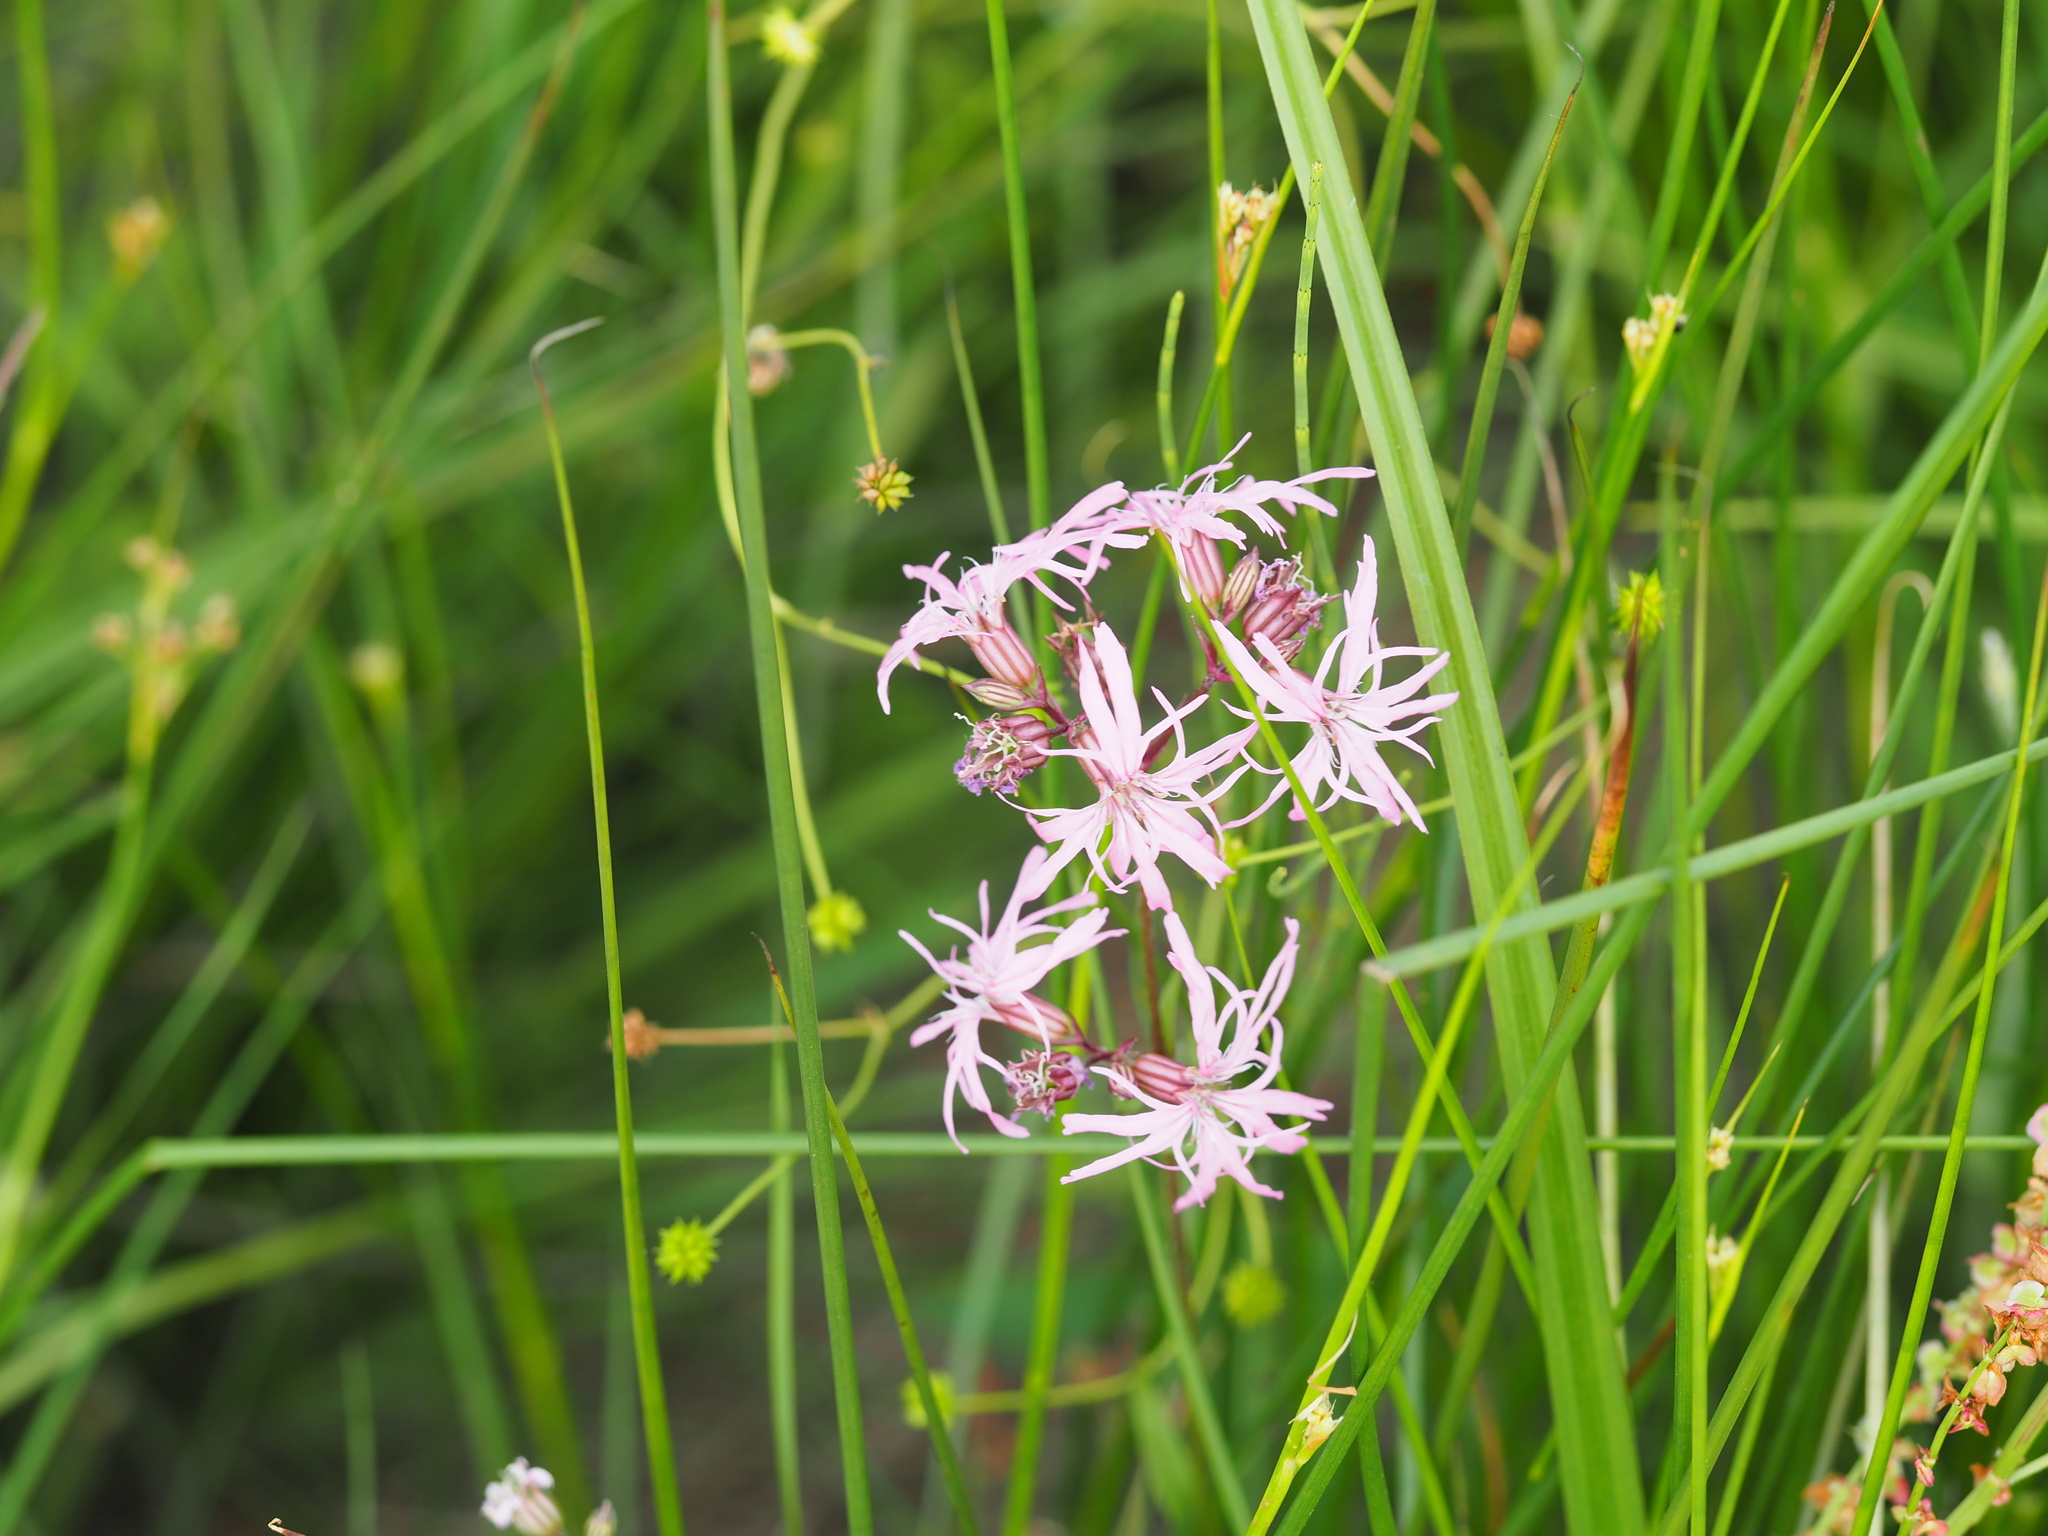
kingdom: Plantae
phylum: Tracheophyta
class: Magnoliopsida
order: Caryophyllales
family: Caryophyllaceae
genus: Silene
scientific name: Silene flos-cuculi
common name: Ragged-robin
